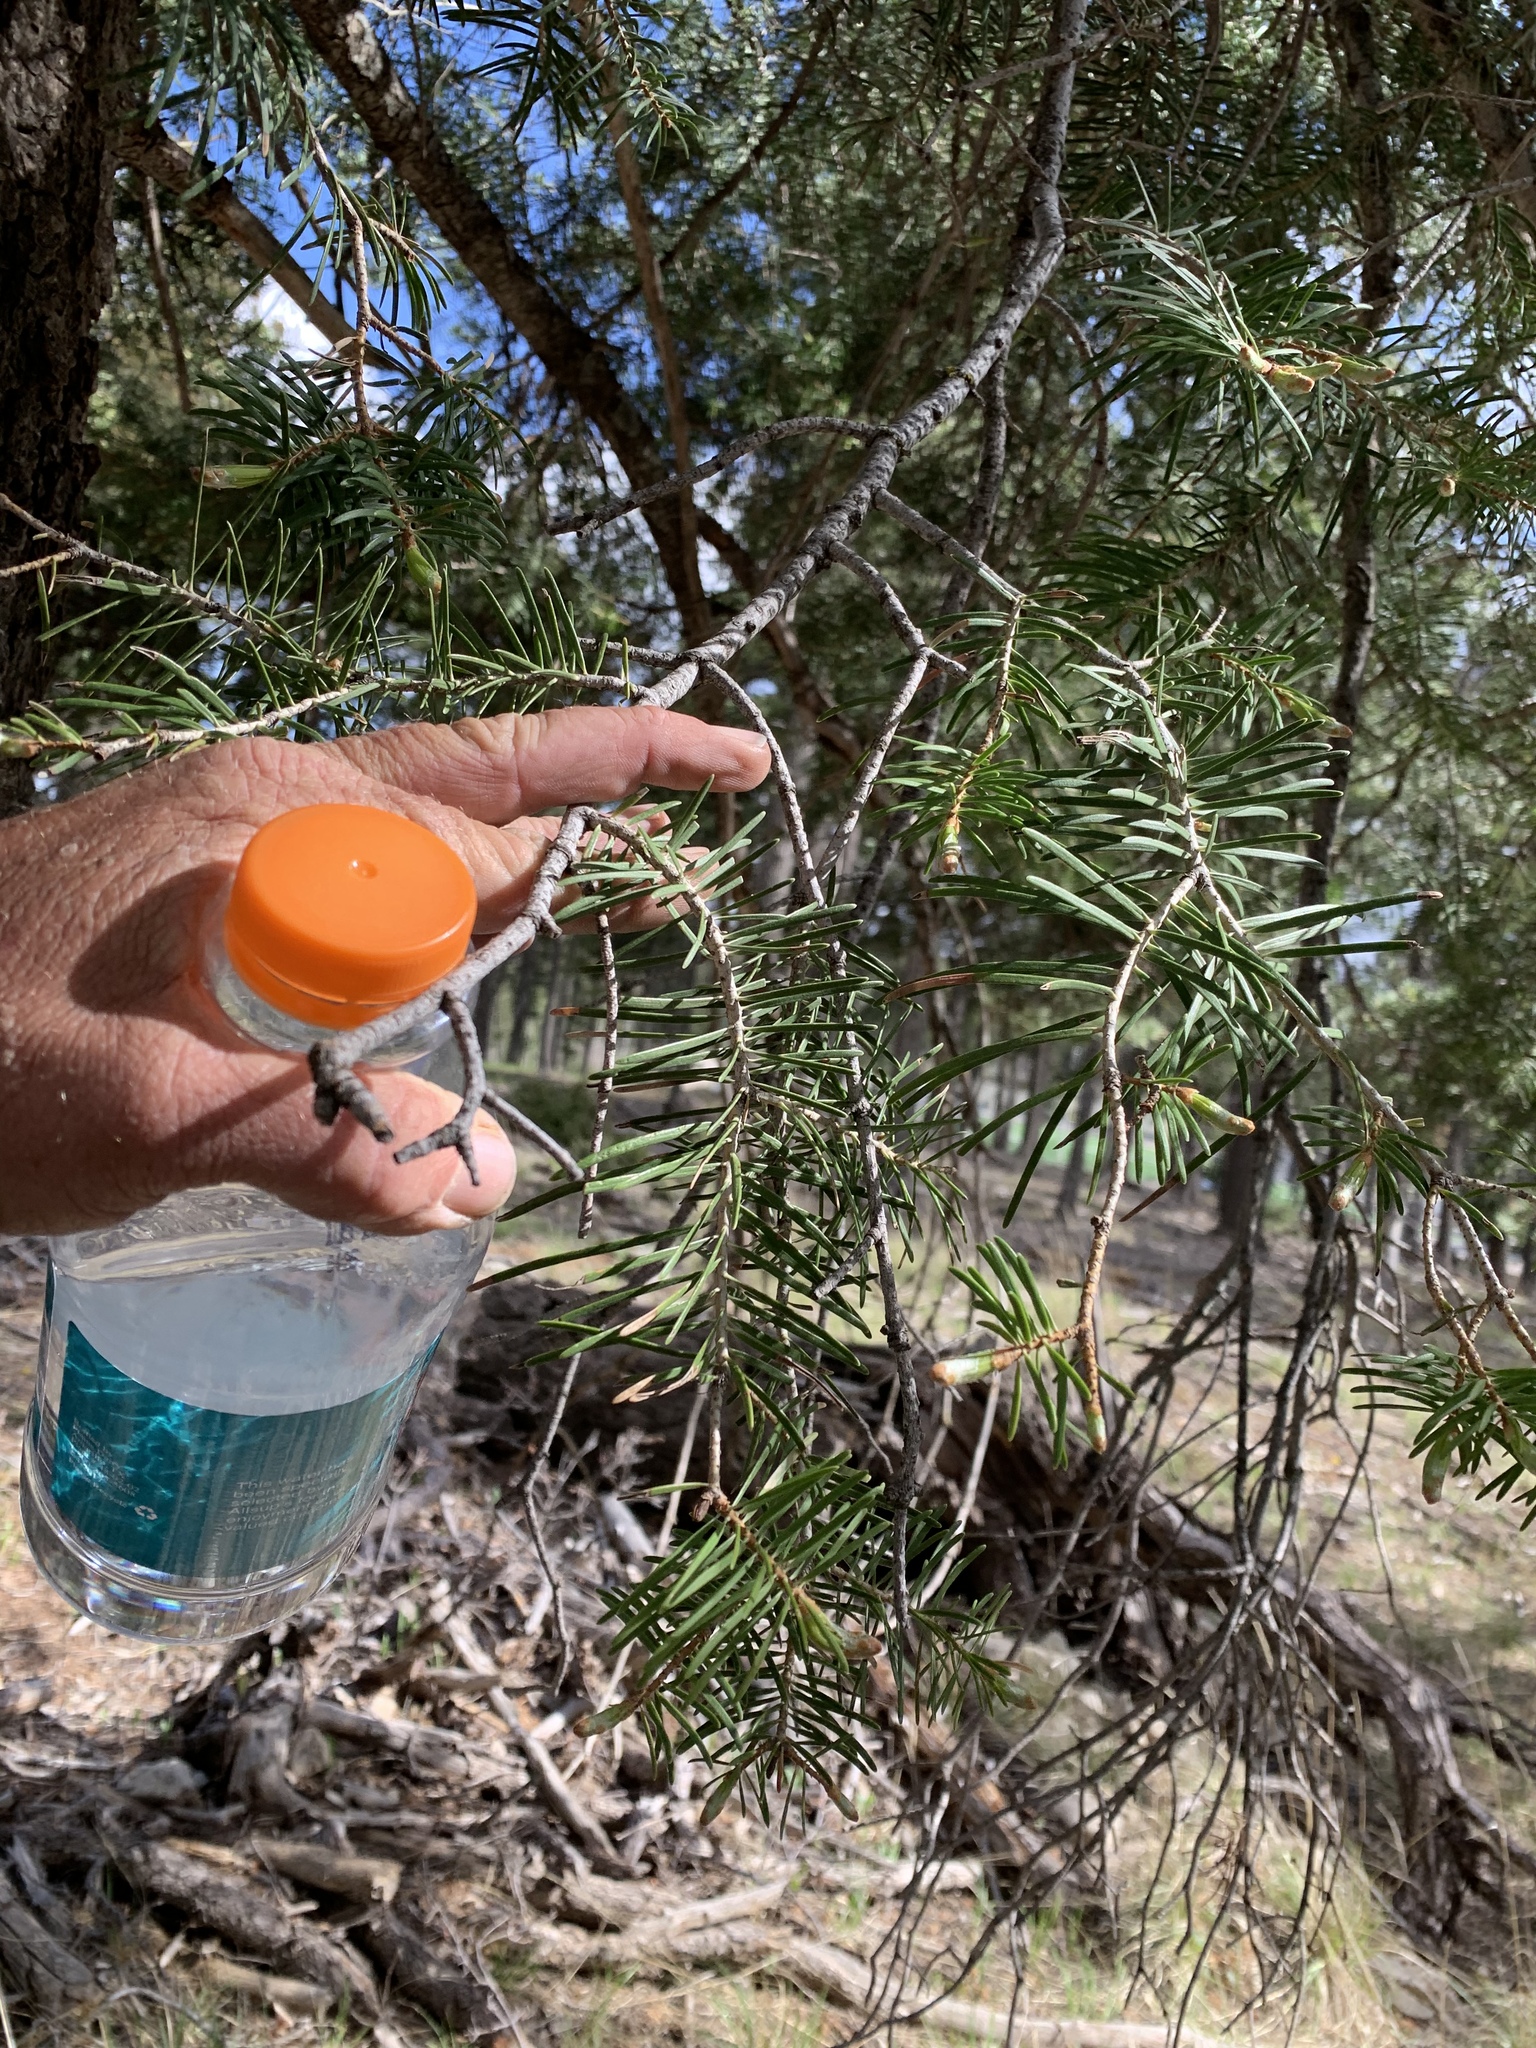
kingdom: Plantae
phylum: Tracheophyta
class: Pinopsida
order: Pinales
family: Pinaceae
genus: Abies
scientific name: Abies concolor
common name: Colorado fir
